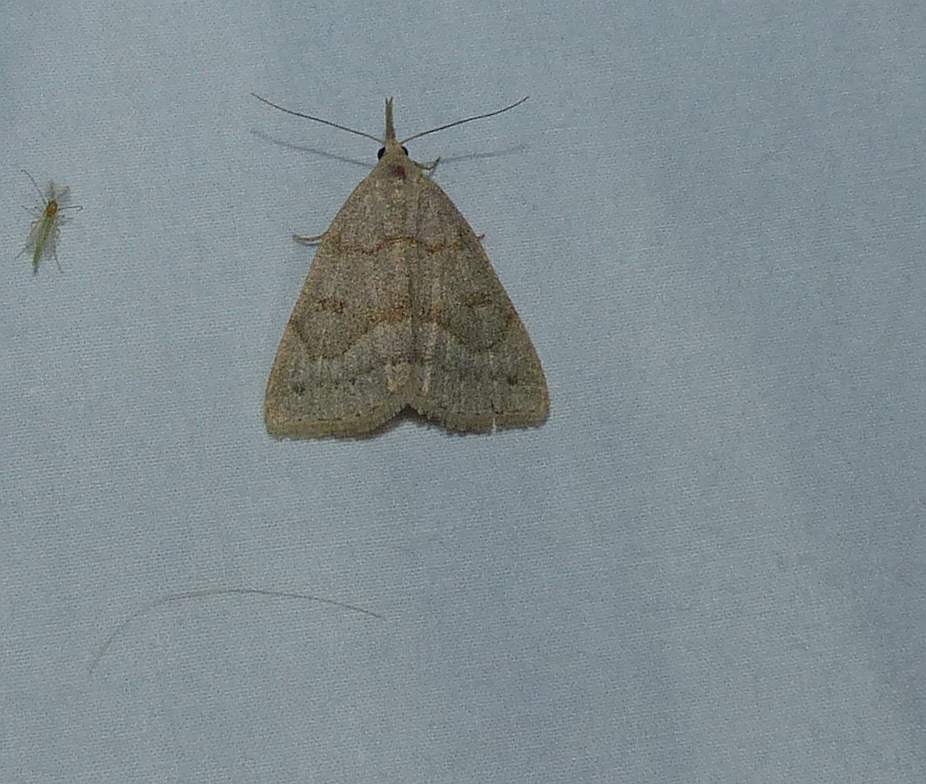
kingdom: Animalia
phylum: Arthropoda
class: Insecta
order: Lepidoptera
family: Erebidae
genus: Macrochilo
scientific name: Macrochilo morbidalis
